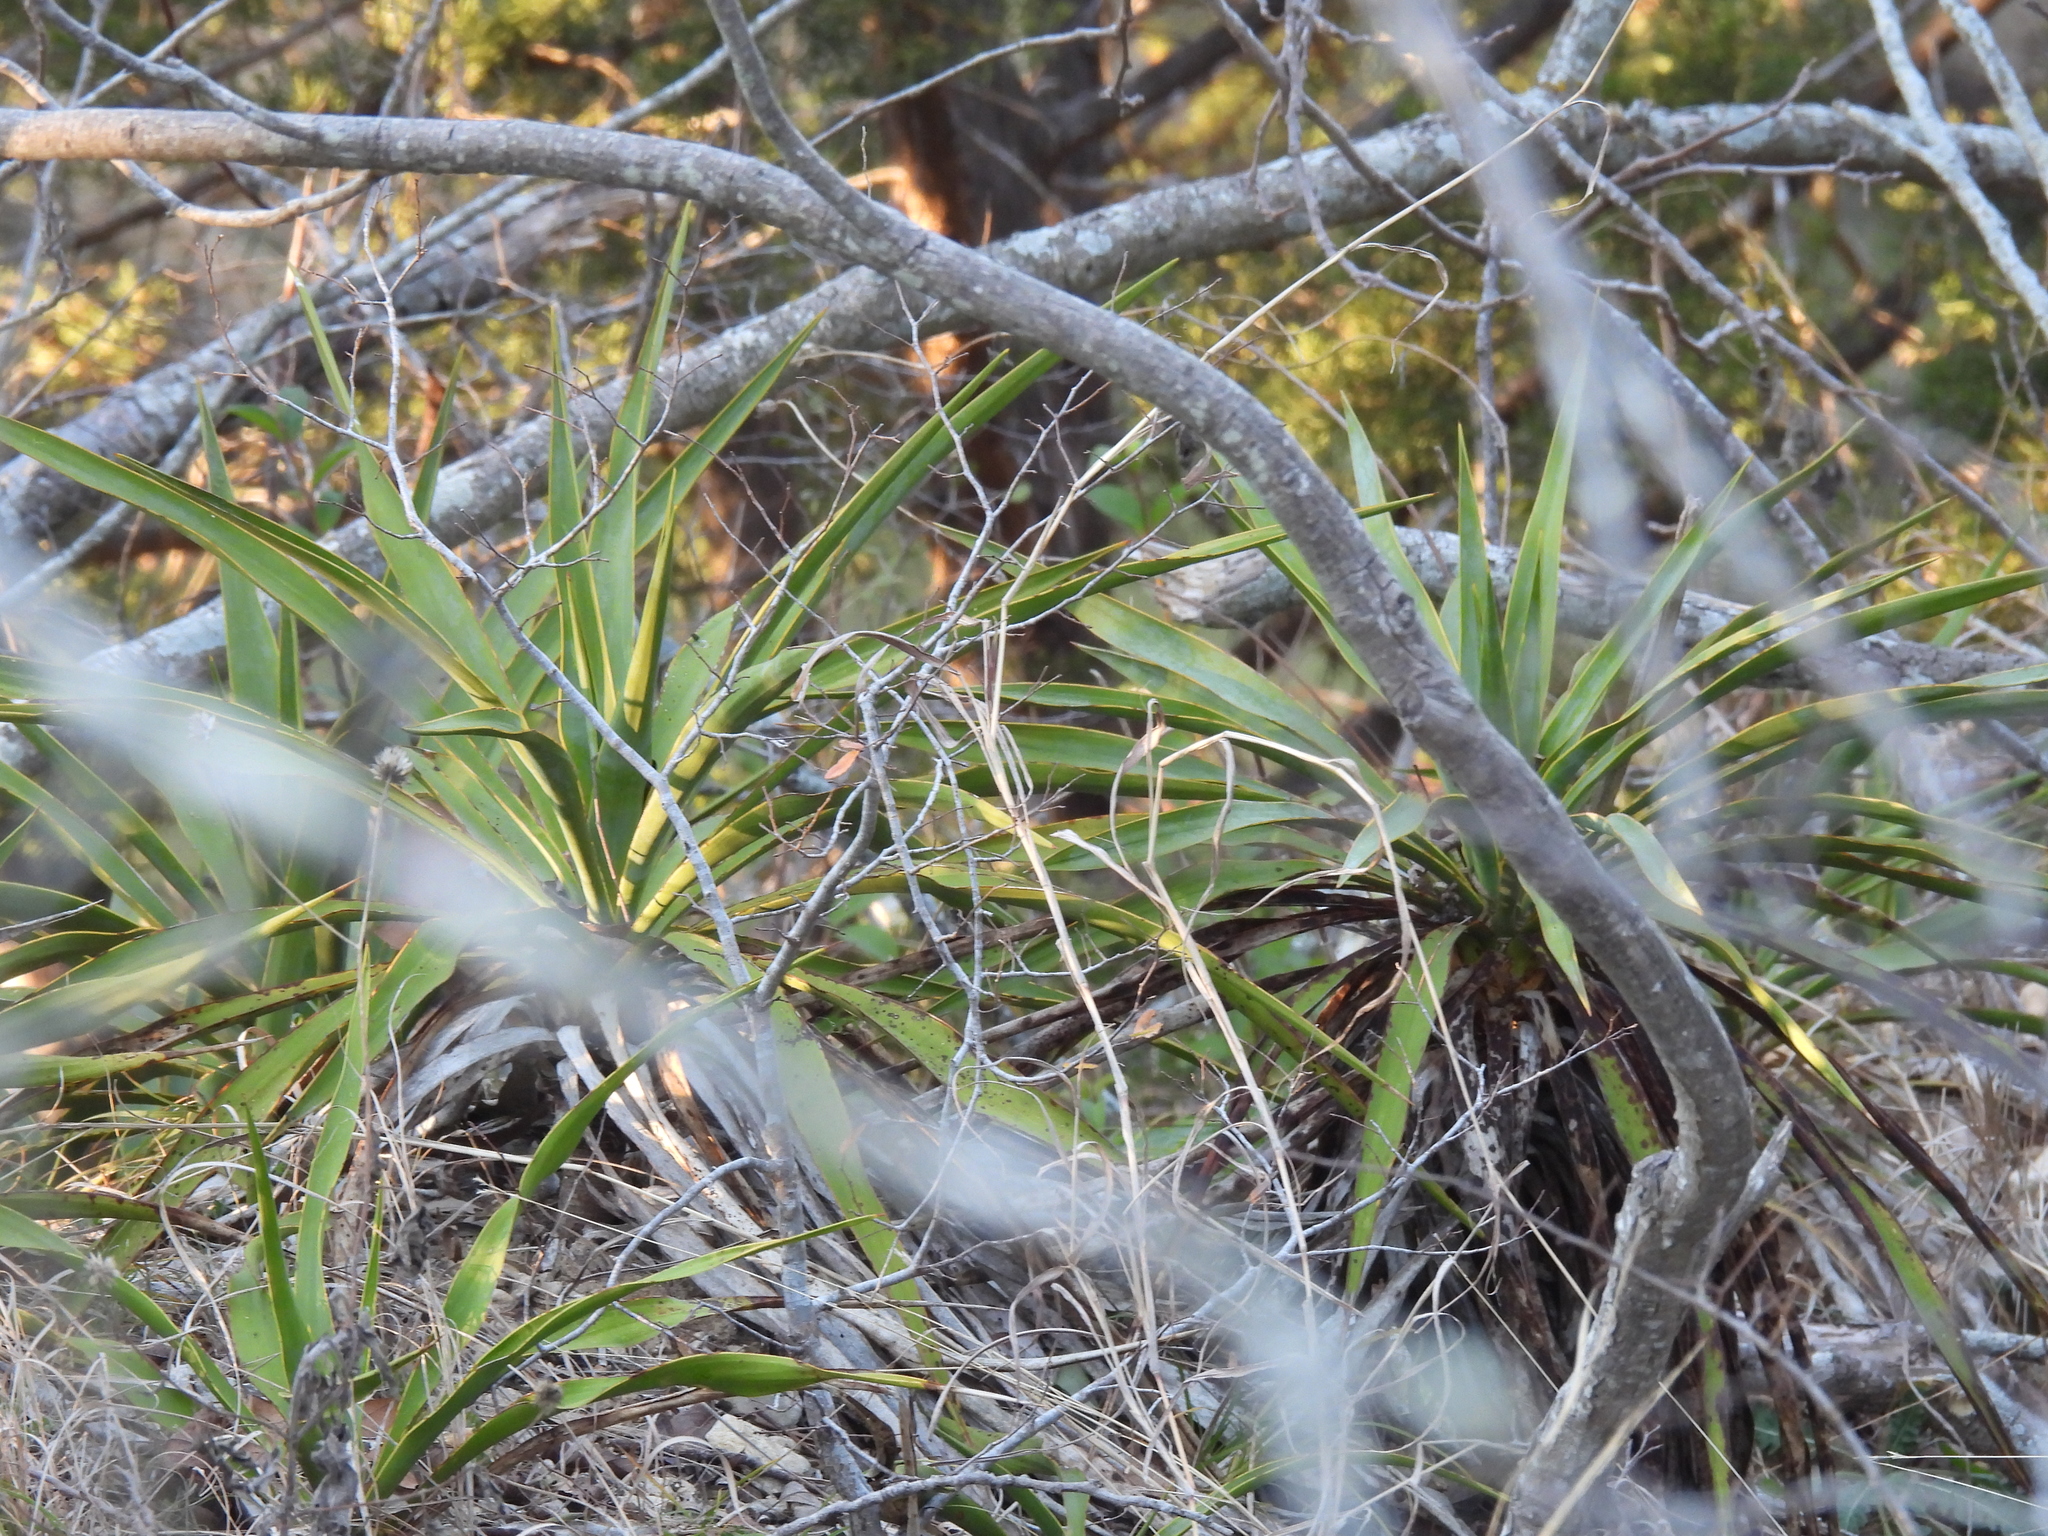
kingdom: Plantae
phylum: Tracheophyta
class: Liliopsida
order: Asparagales
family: Asparagaceae
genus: Yucca
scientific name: Yucca rupicola
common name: Twisted-leaf spanish-dagger
